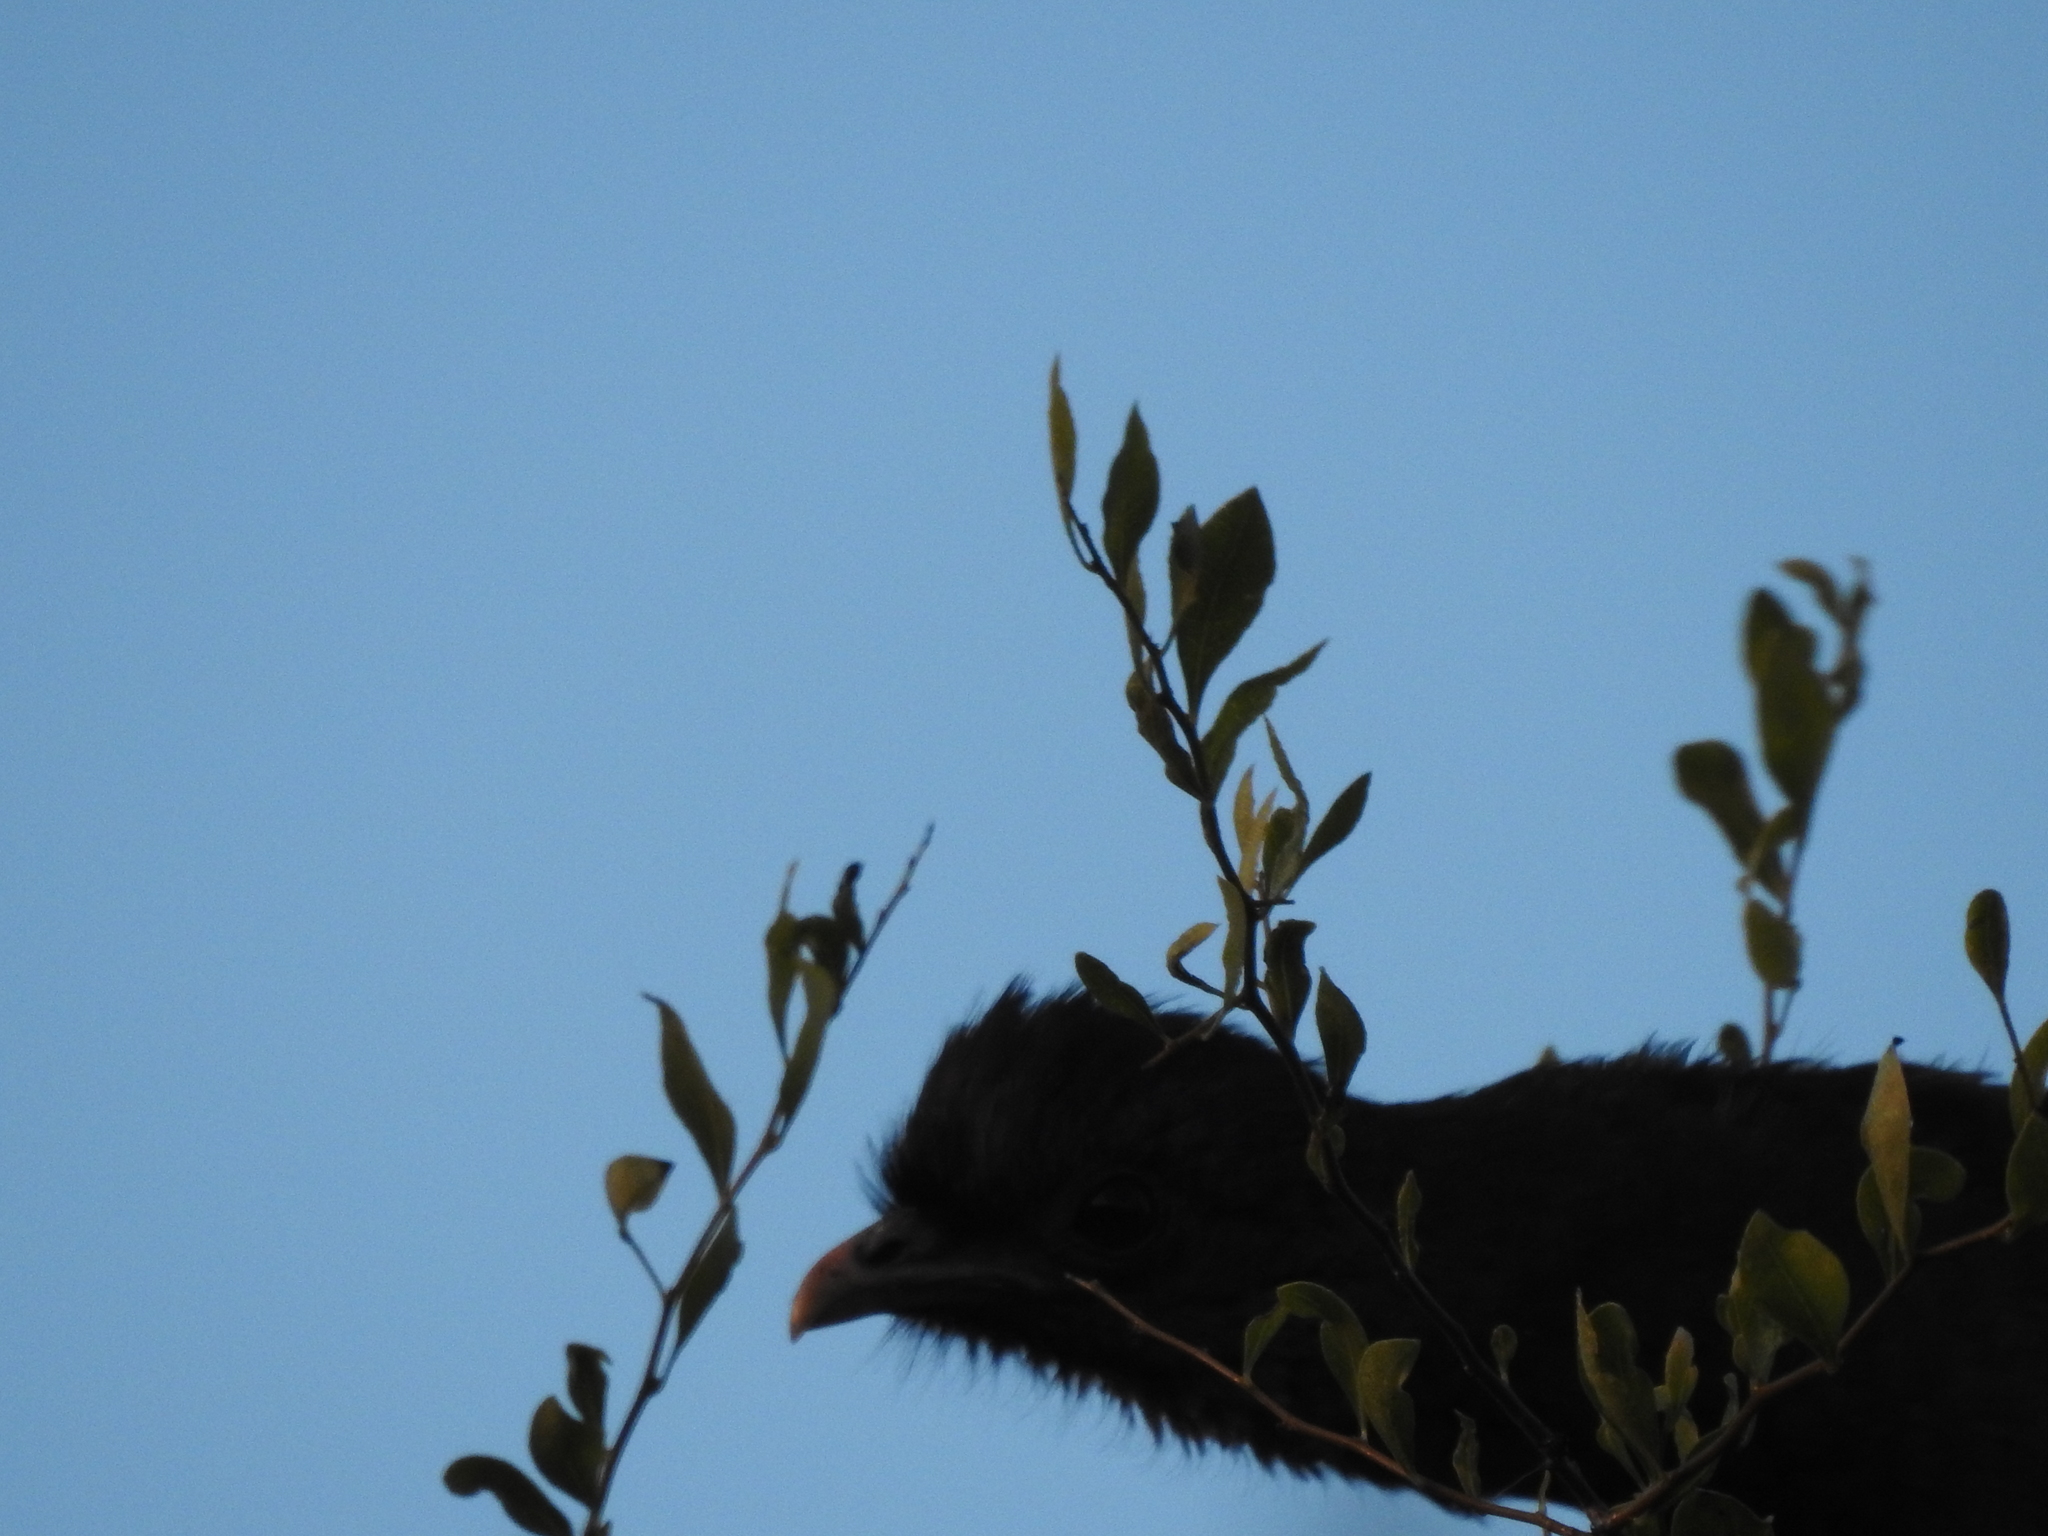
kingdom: Animalia
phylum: Chordata
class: Aves
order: Galliformes
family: Cracidae
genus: Ortalis
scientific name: Ortalis canicollis
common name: Chaco chachalaca
